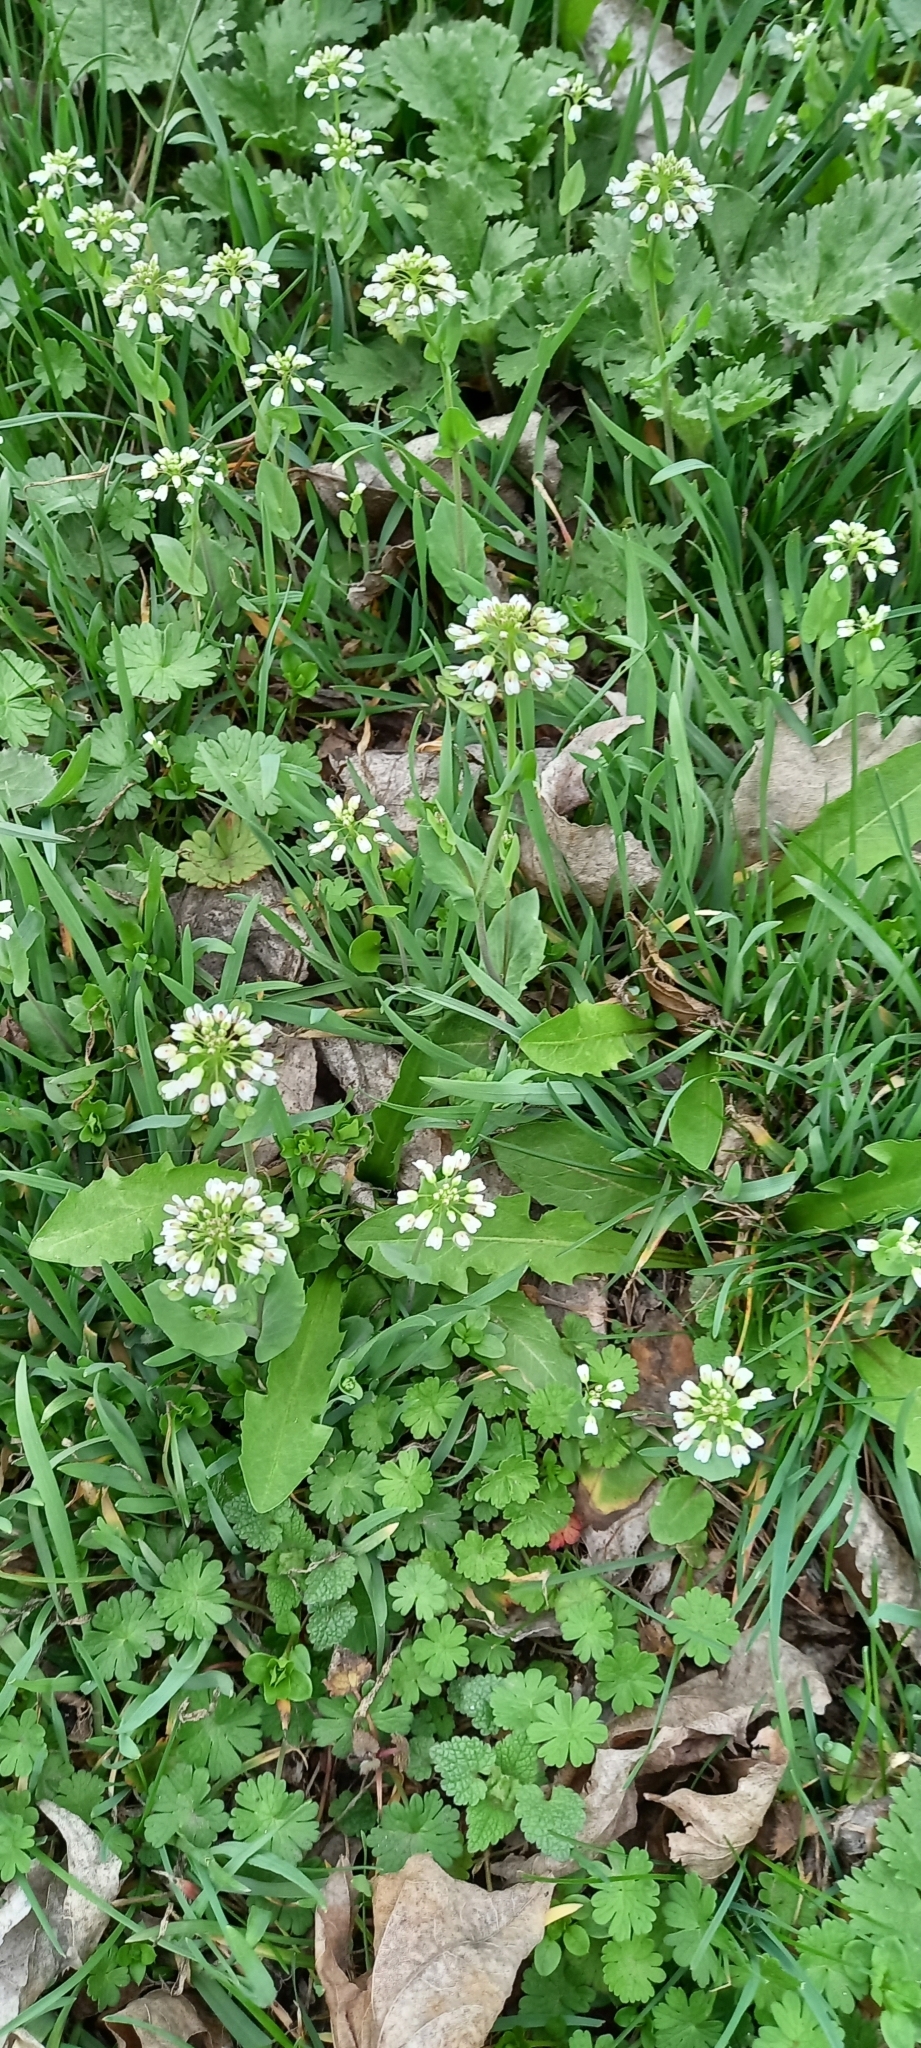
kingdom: Plantae
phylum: Tracheophyta
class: Magnoliopsida
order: Brassicales
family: Brassicaceae
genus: Noccaea
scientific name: Noccaea perfoliata
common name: Perfoliate pennycress
